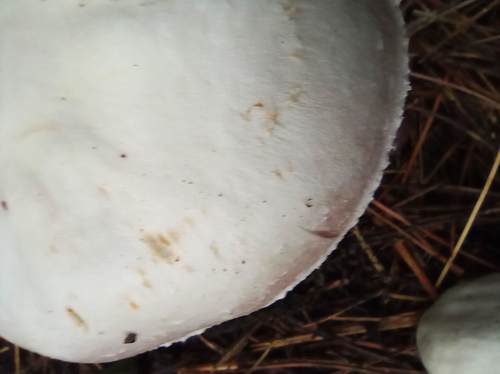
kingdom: Fungi
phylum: Basidiomycota
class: Agaricomycetes
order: Agaricales
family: Agaricaceae
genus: Agaricus
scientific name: Agaricus sylvicola
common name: Wood mushroom
